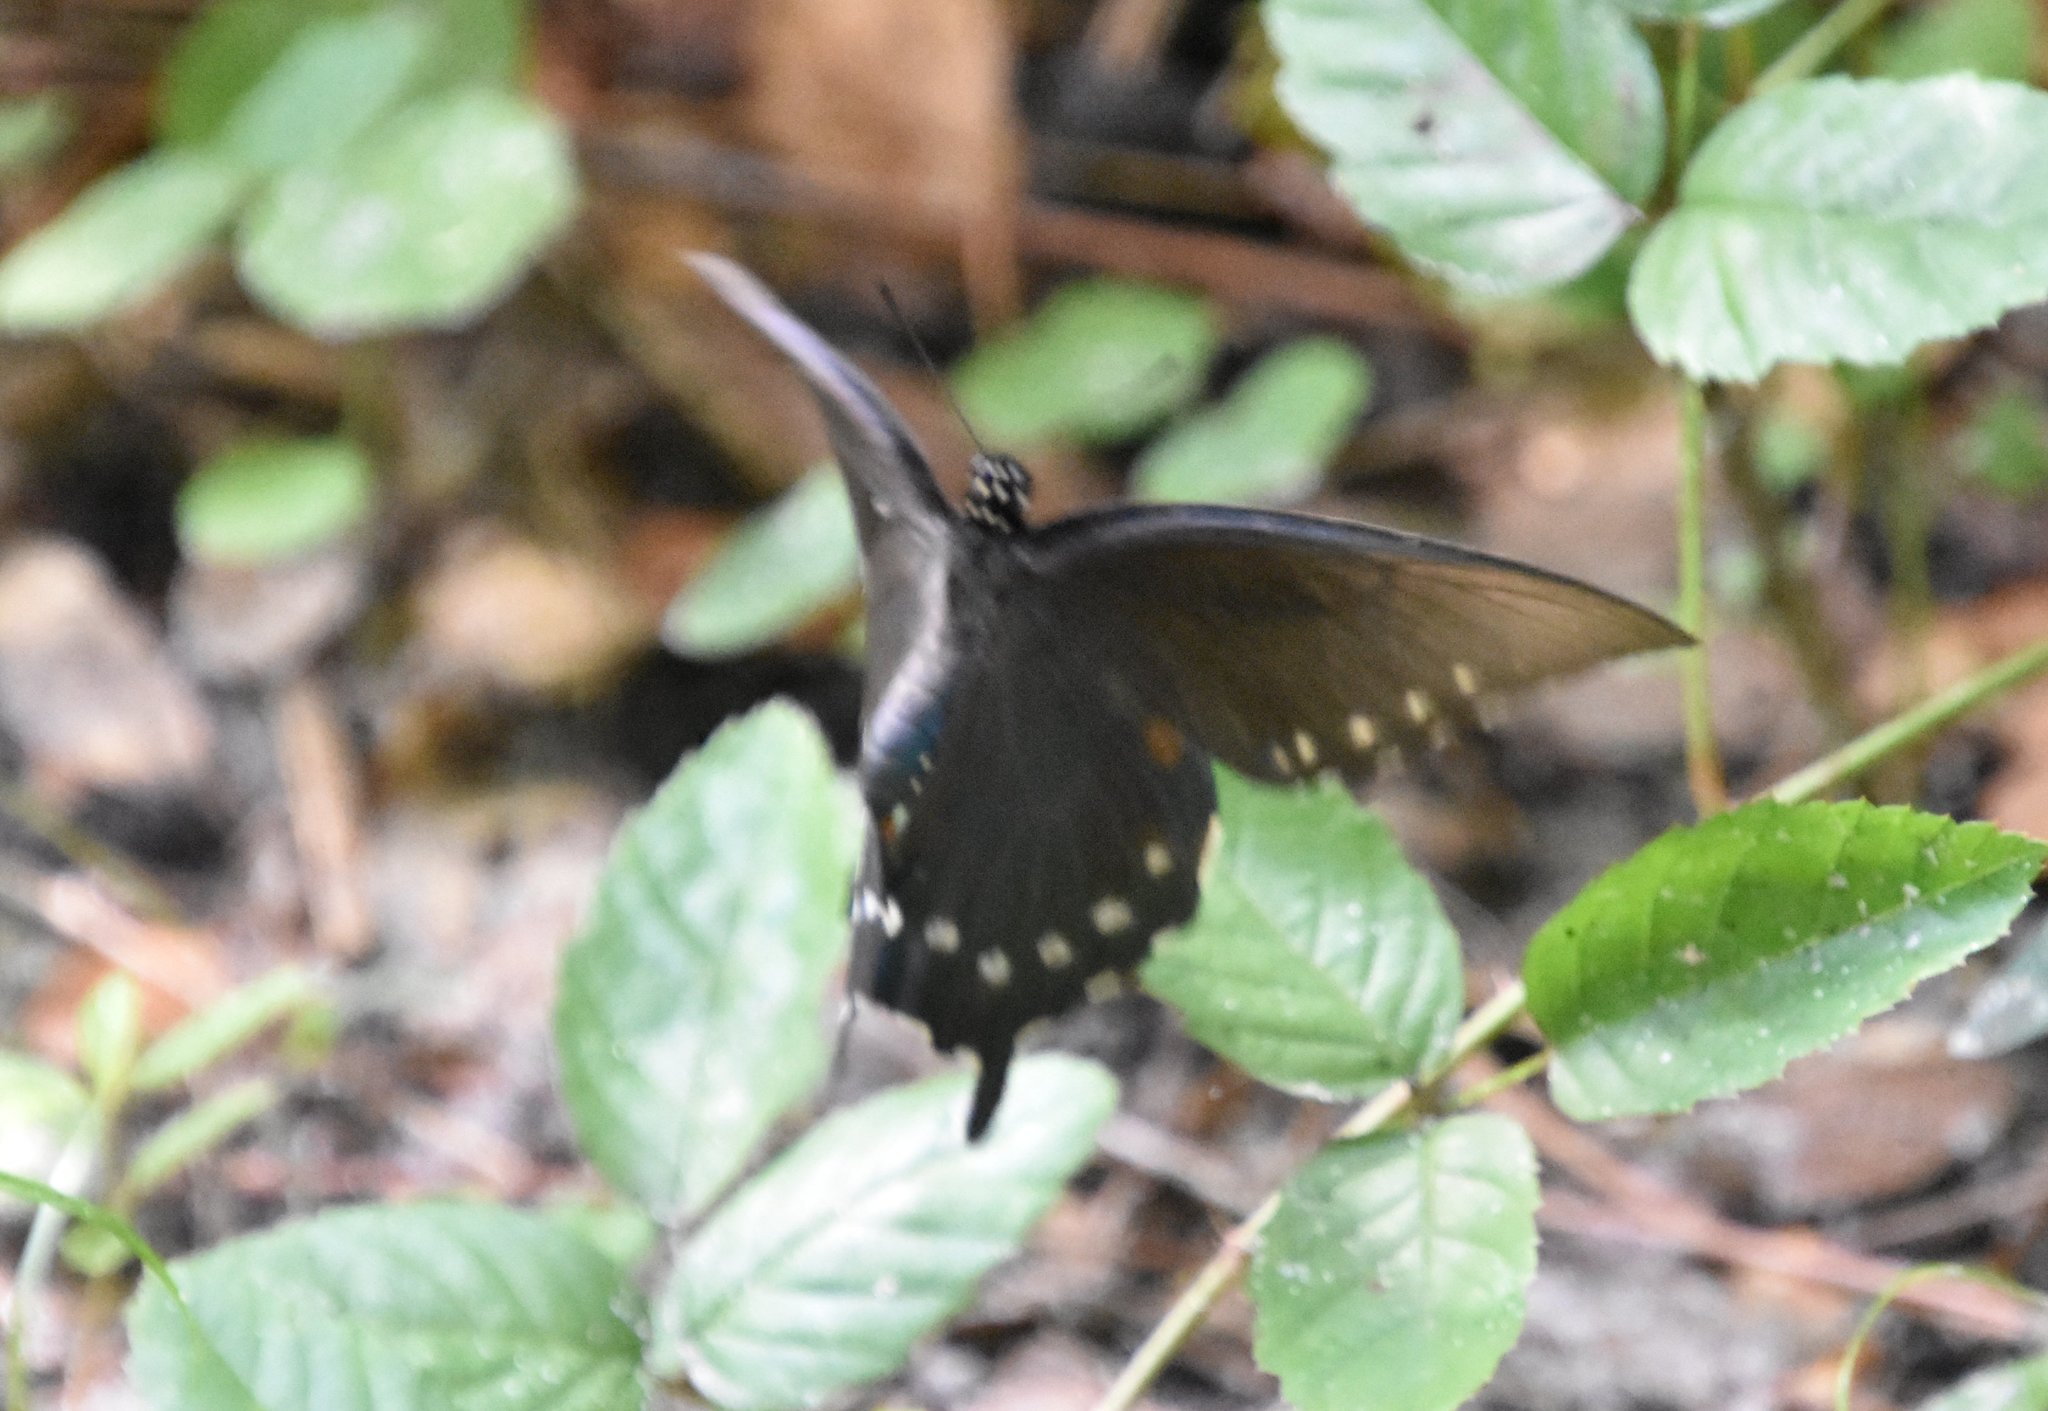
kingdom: Animalia
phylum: Arthropoda
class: Insecta
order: Lepidoptera
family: Papilionidae
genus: Battus
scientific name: Battus philenor
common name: Pipevine swallowtail
